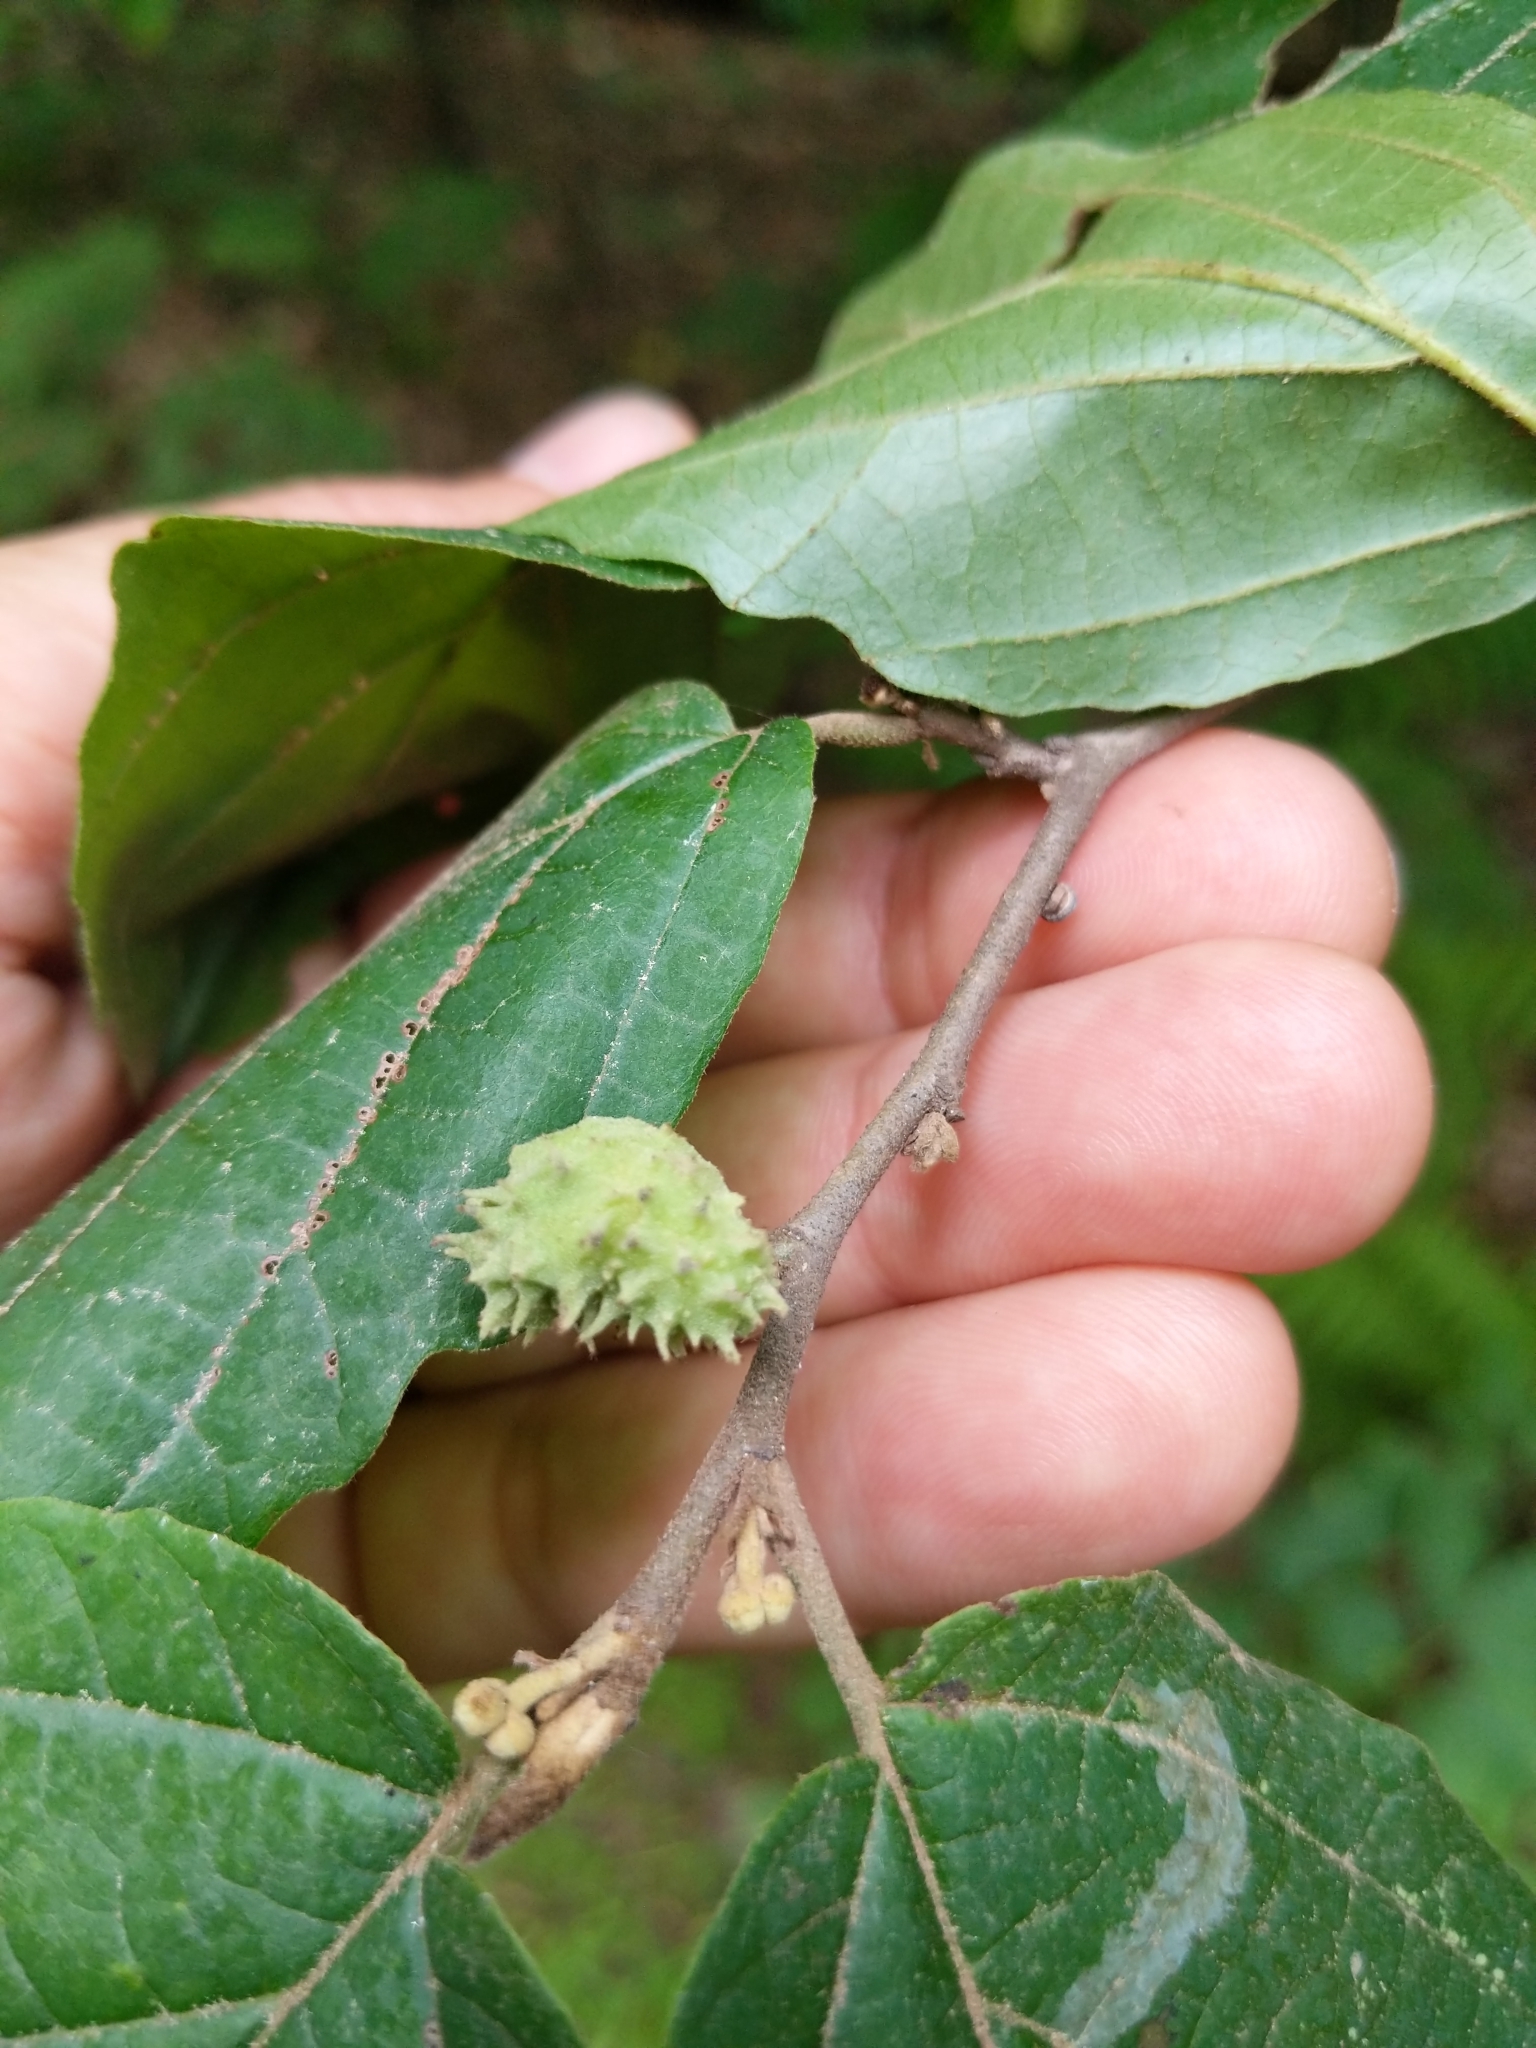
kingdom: Animalia
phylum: Arthropoda
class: Insecta
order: Hemiptera
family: Aphididae
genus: Hamamelistes
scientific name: Hamamelistes spinosus
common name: Witch hazel gall aphid
